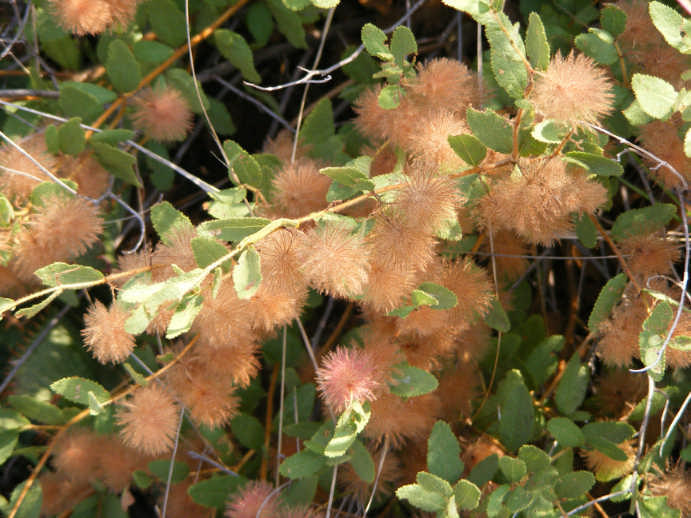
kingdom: Plantae
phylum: Tracheophyta
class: Magnoliopsida
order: Malvales
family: Malvaceae
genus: Triumfetta
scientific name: Triumfetta sonderi
